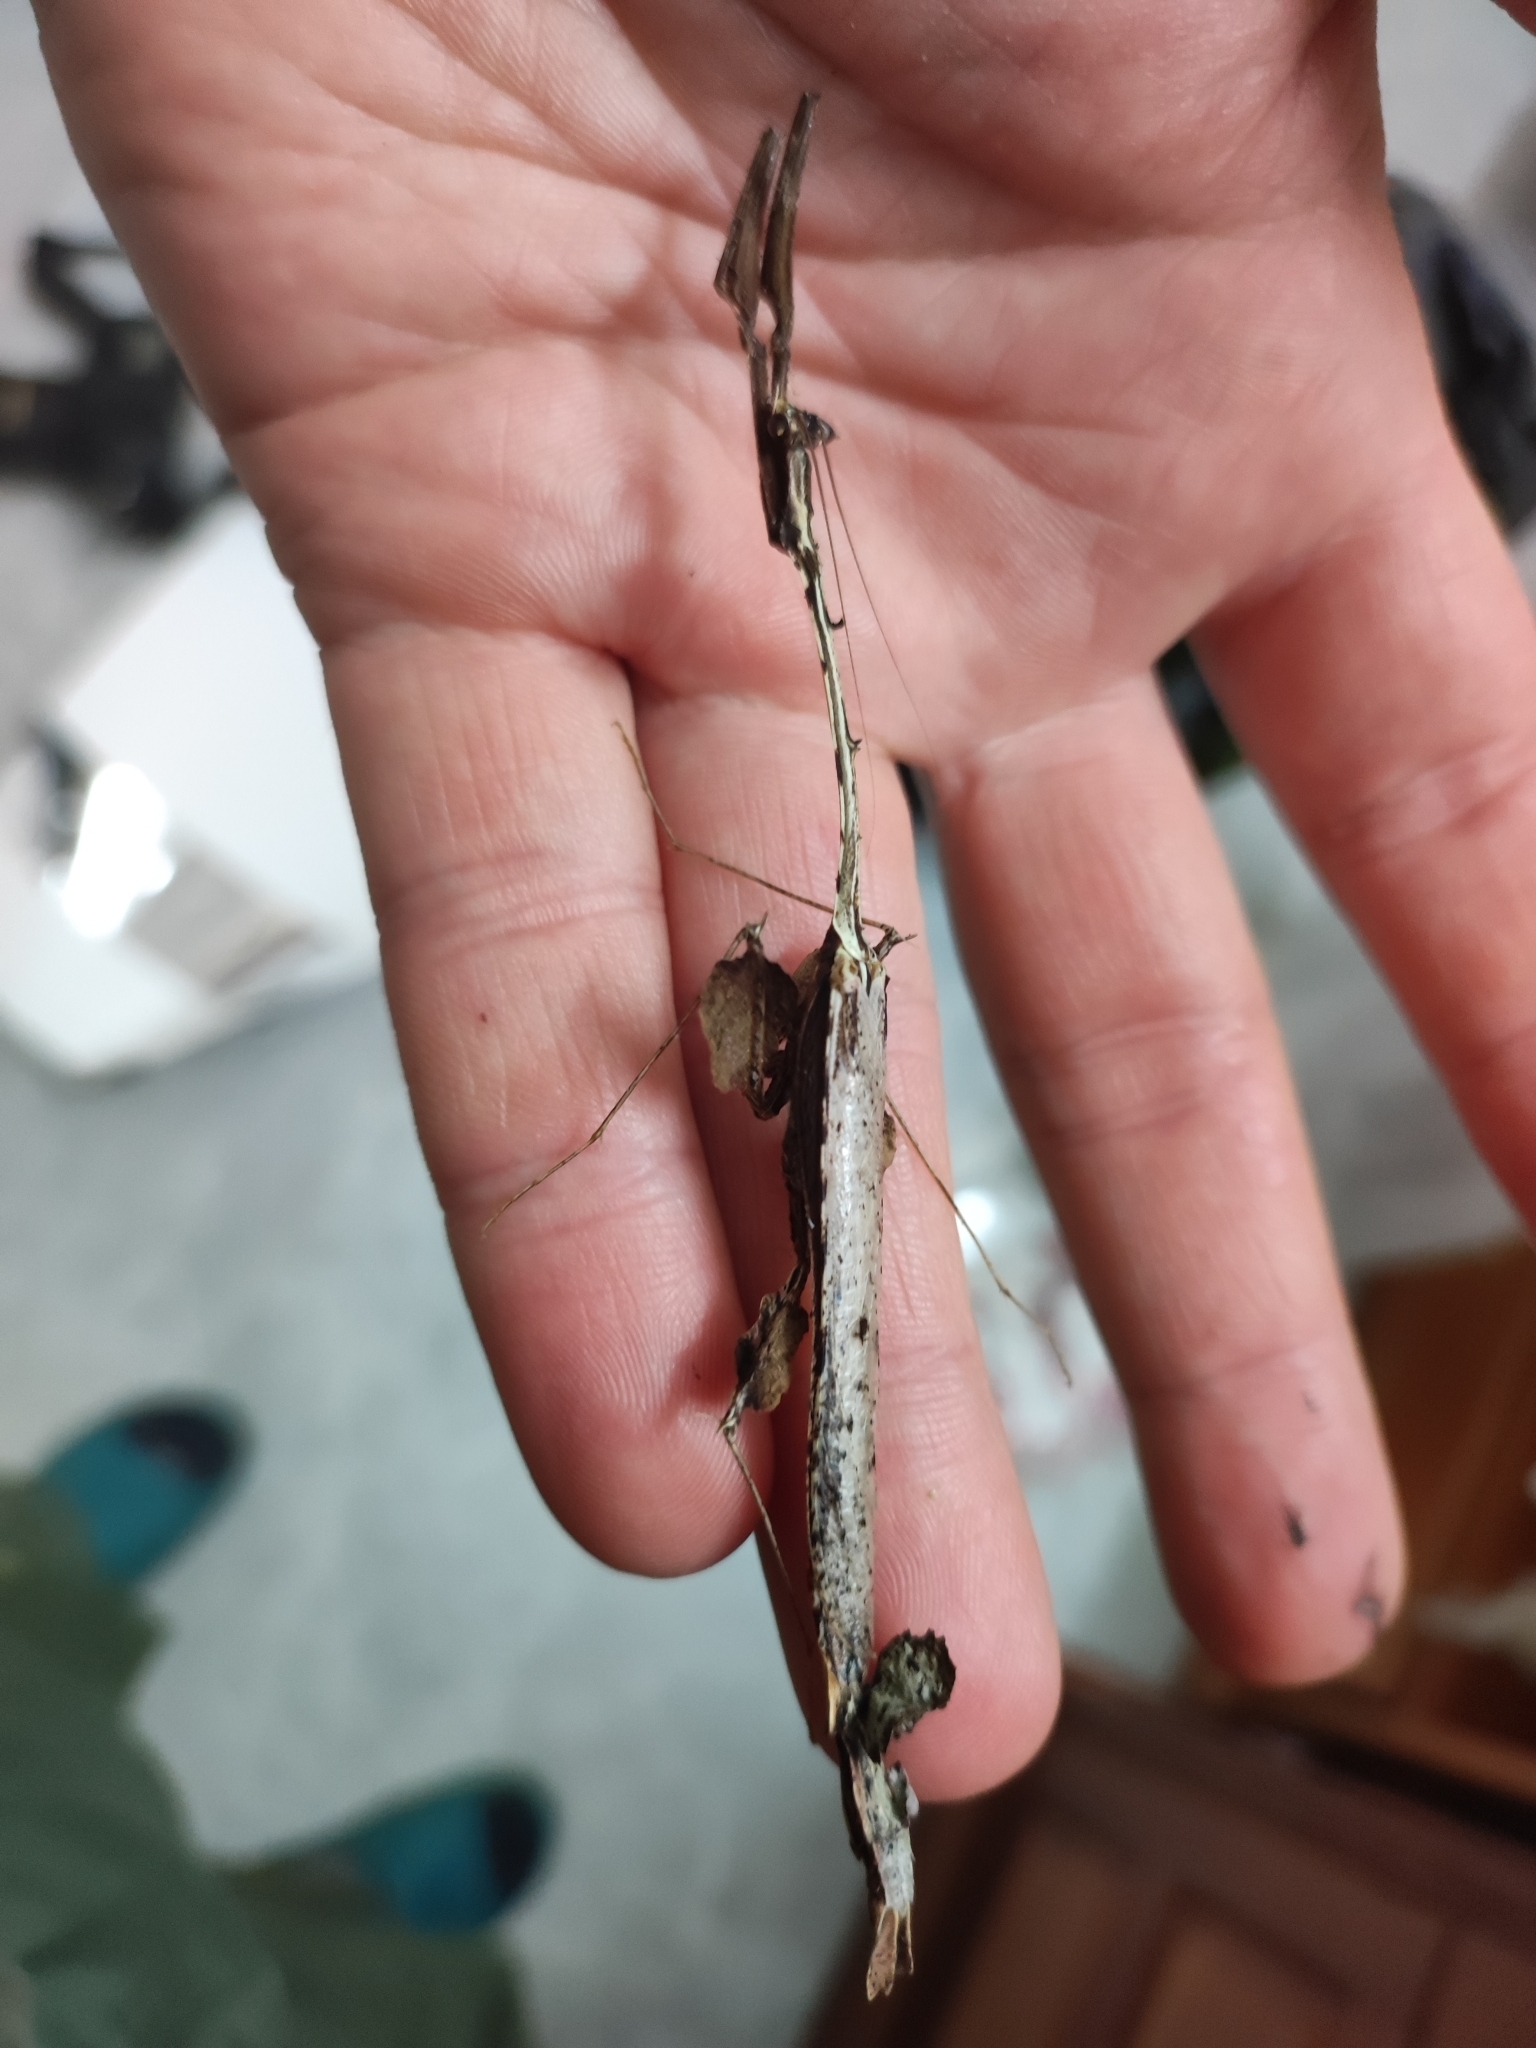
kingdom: Animalia
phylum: Arthropoda
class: Insecta
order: Mantodea
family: Toxoderidae
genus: Stenotoxodera
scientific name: Stenotoxodera porioni
